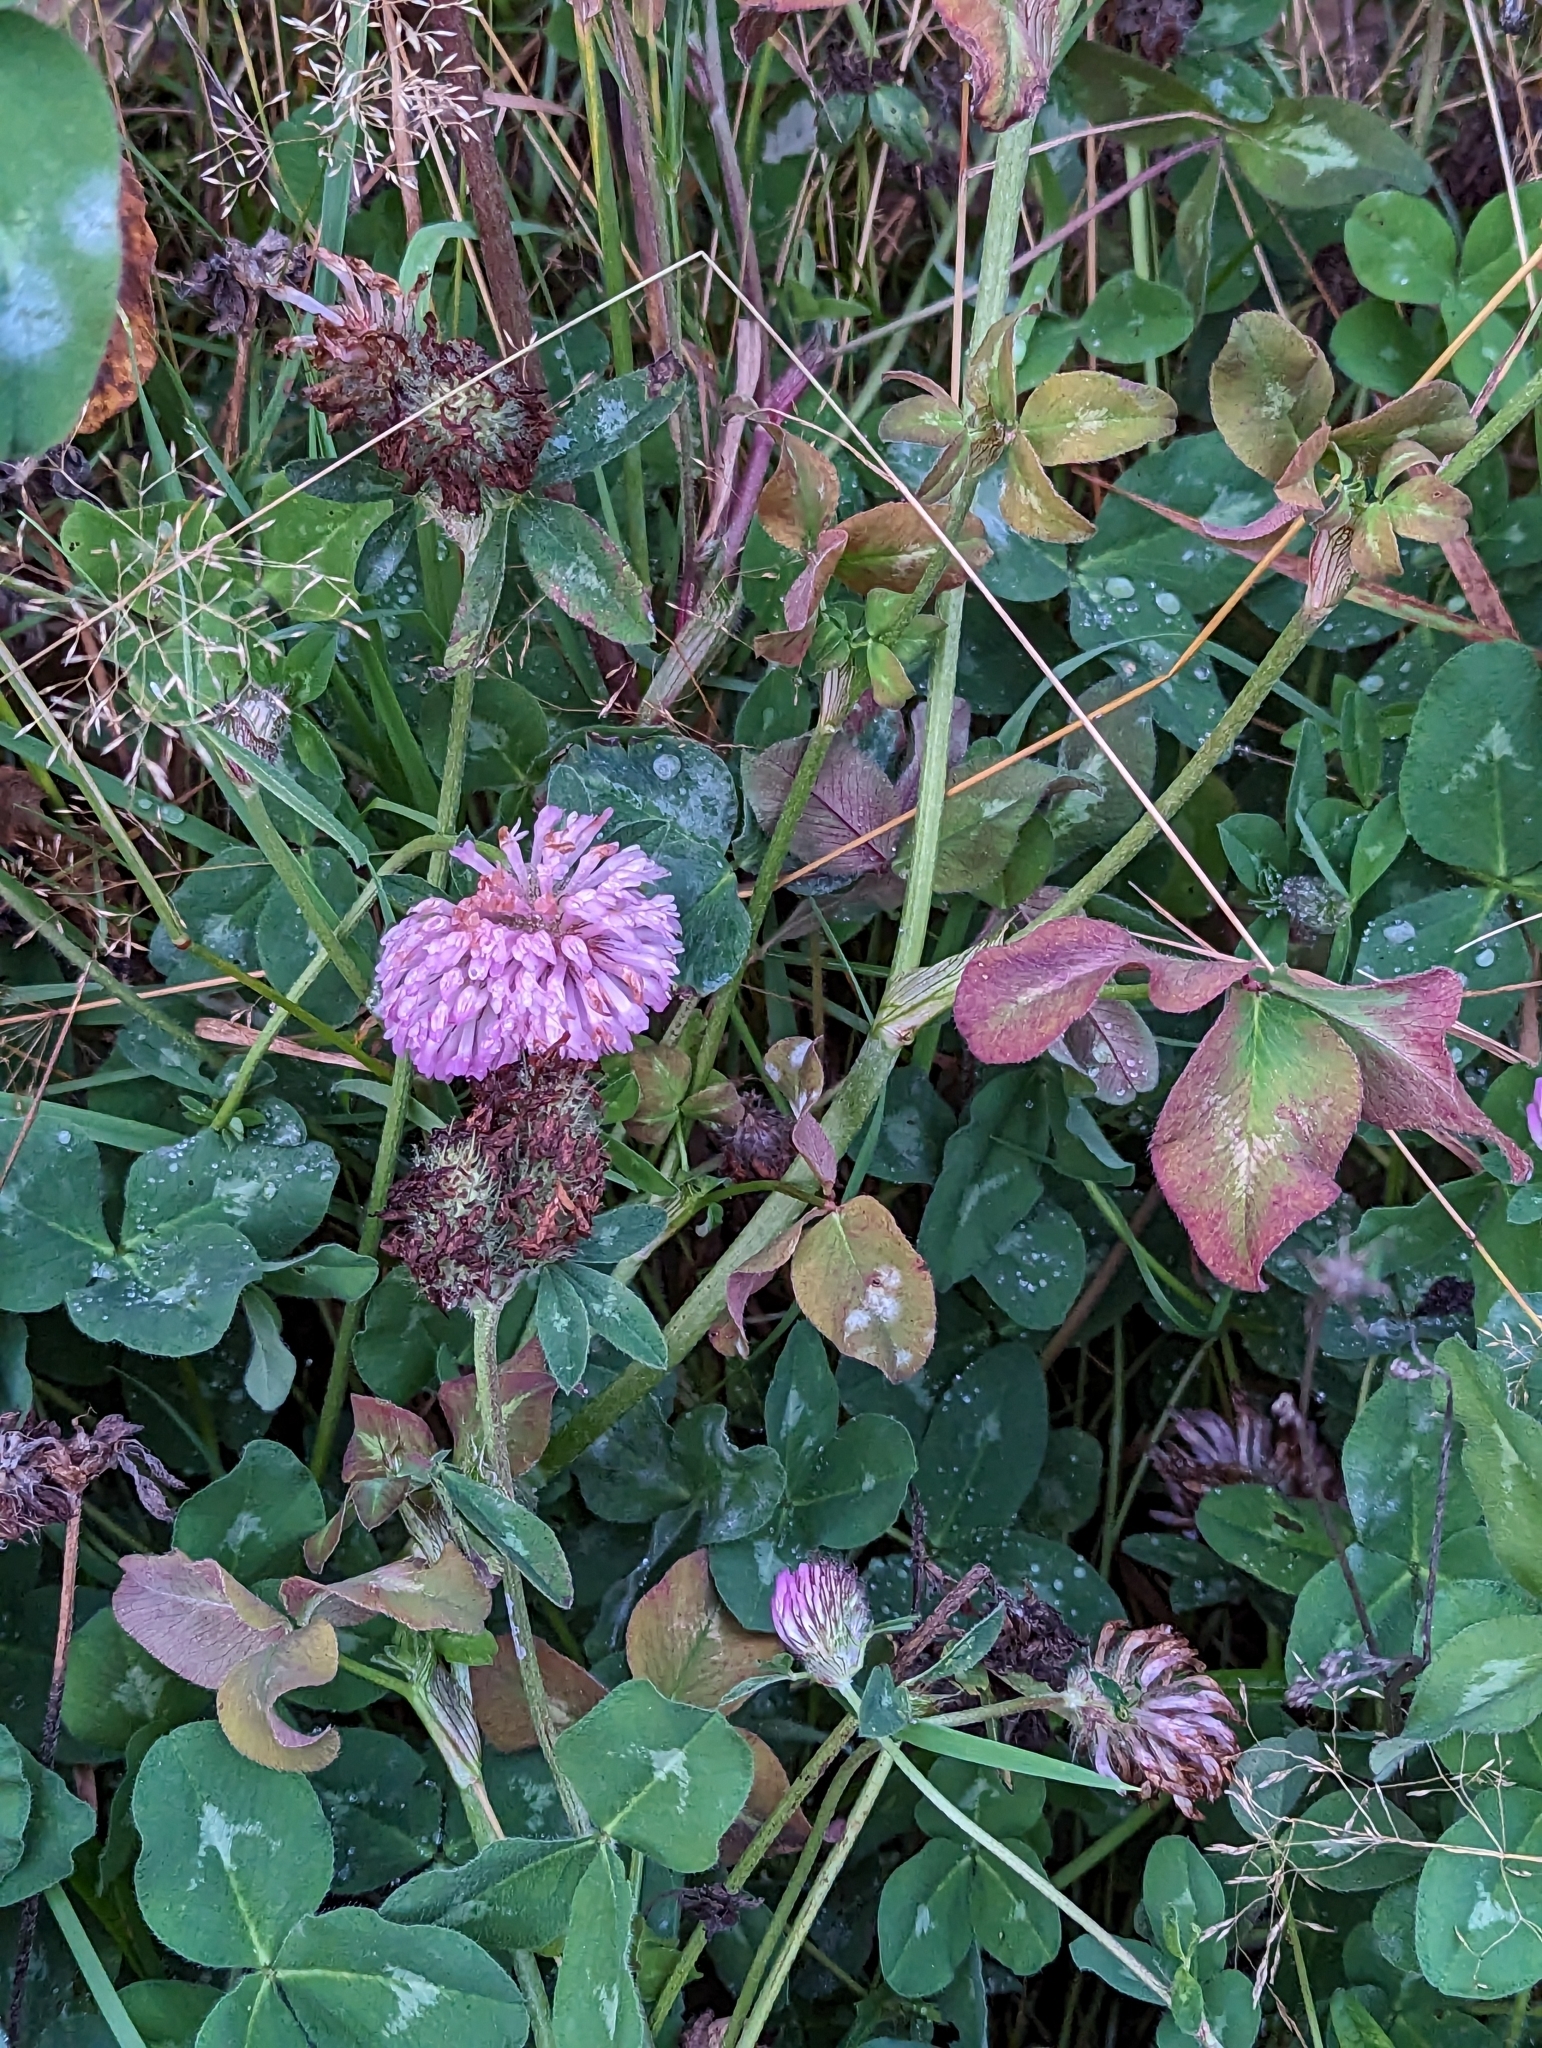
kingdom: Plantae
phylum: Tracheophyta
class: Magnoliopsida
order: Fabales
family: Fabaceae
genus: Trifolium
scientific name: Trifolium pratense
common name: Red clover
